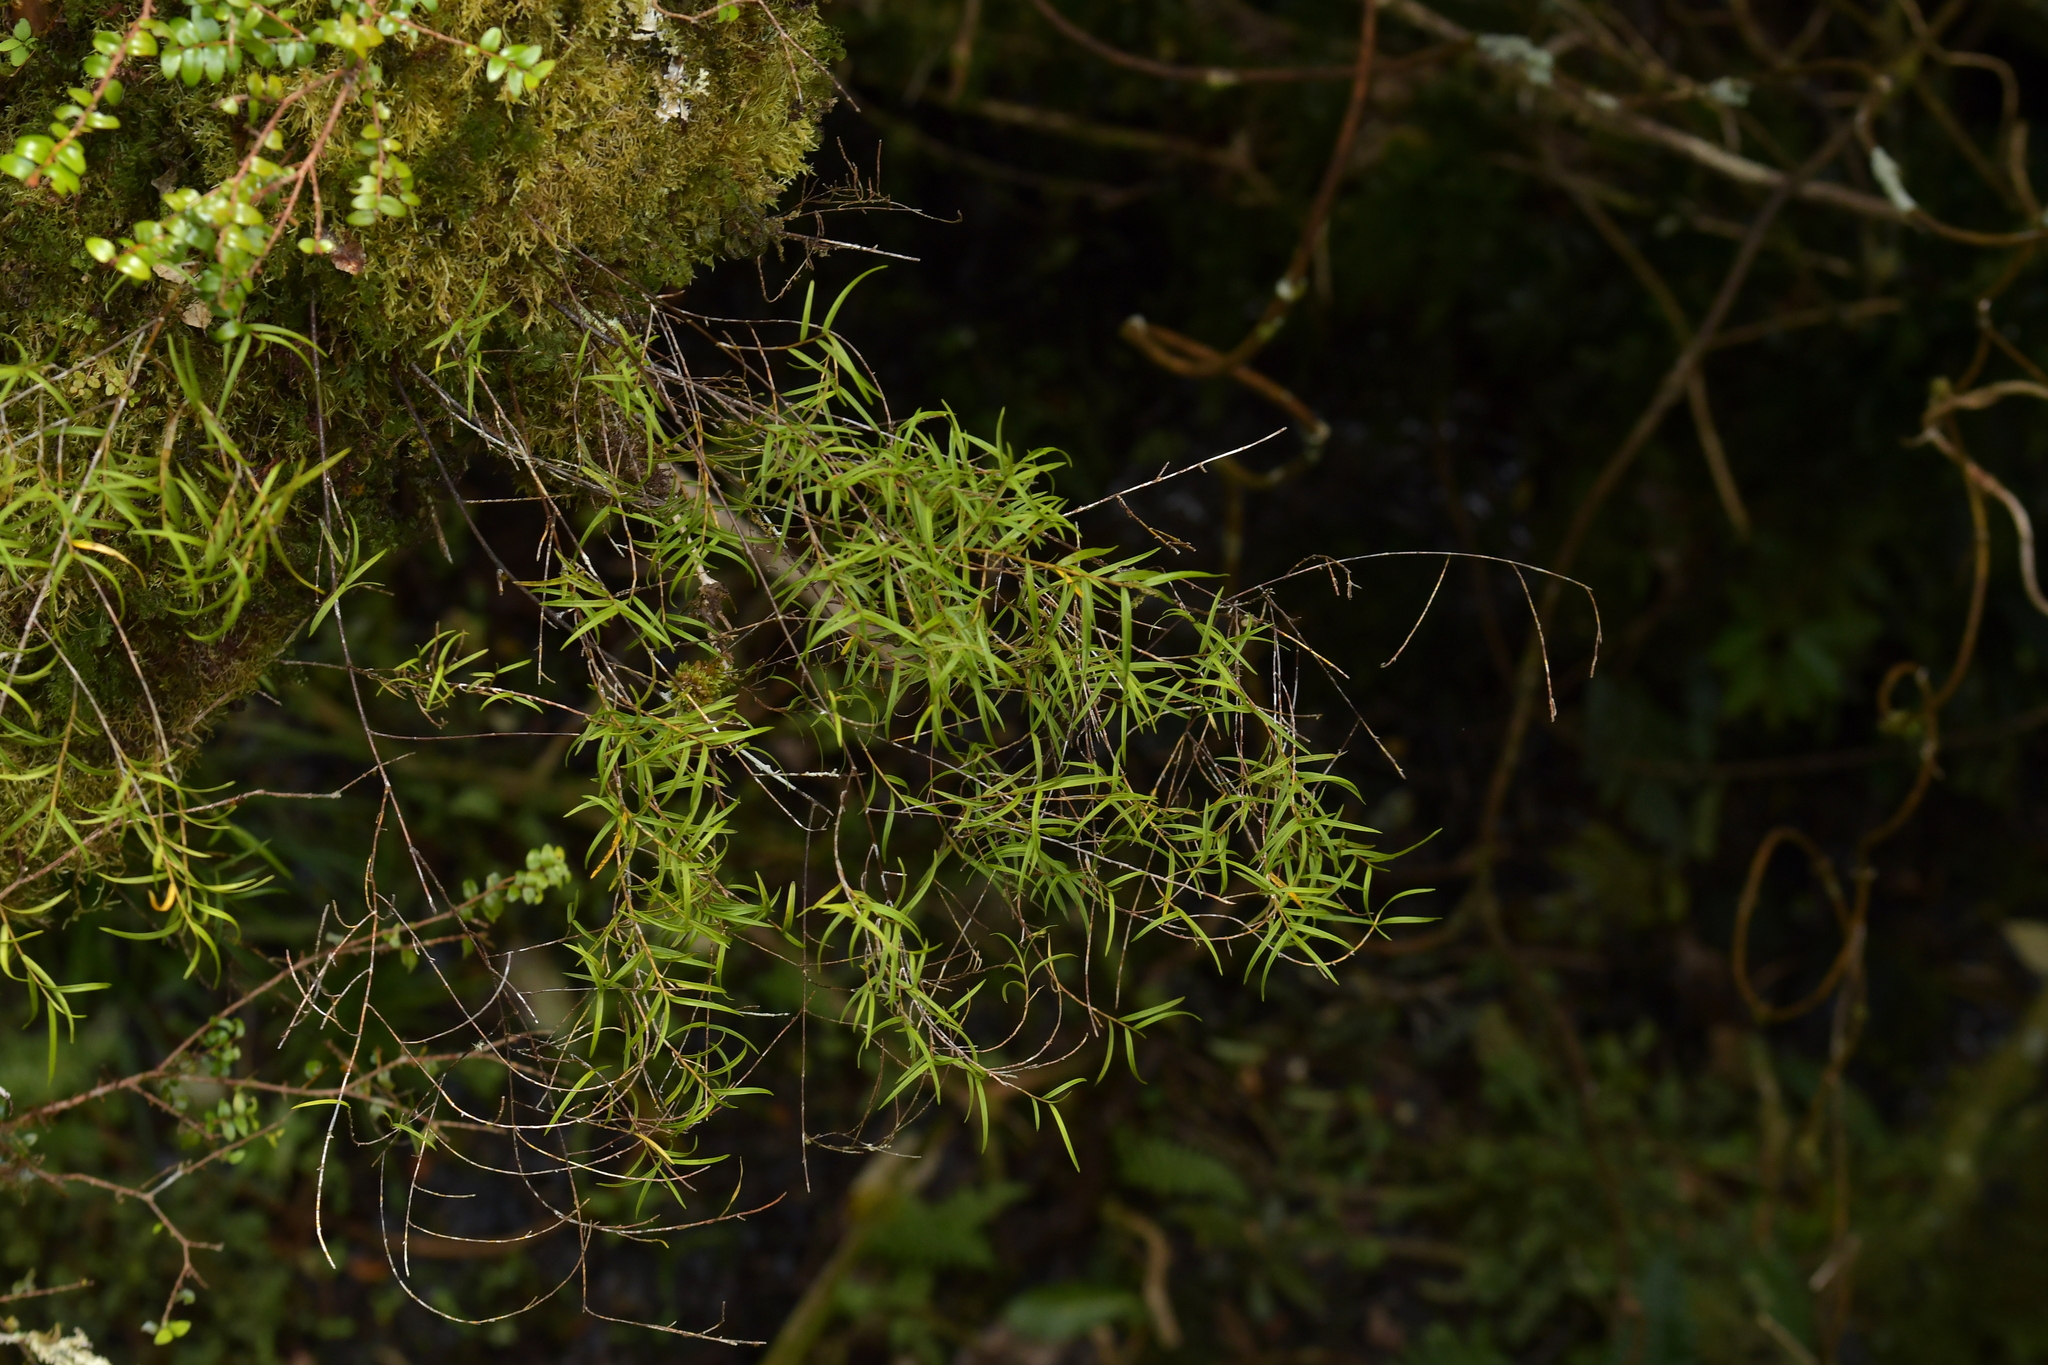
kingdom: Plantae
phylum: Tracheophyta
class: Liliopsida
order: Asparagales
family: Orchidaceae
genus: Dendrobium
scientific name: Dendrobium cunninghamii
